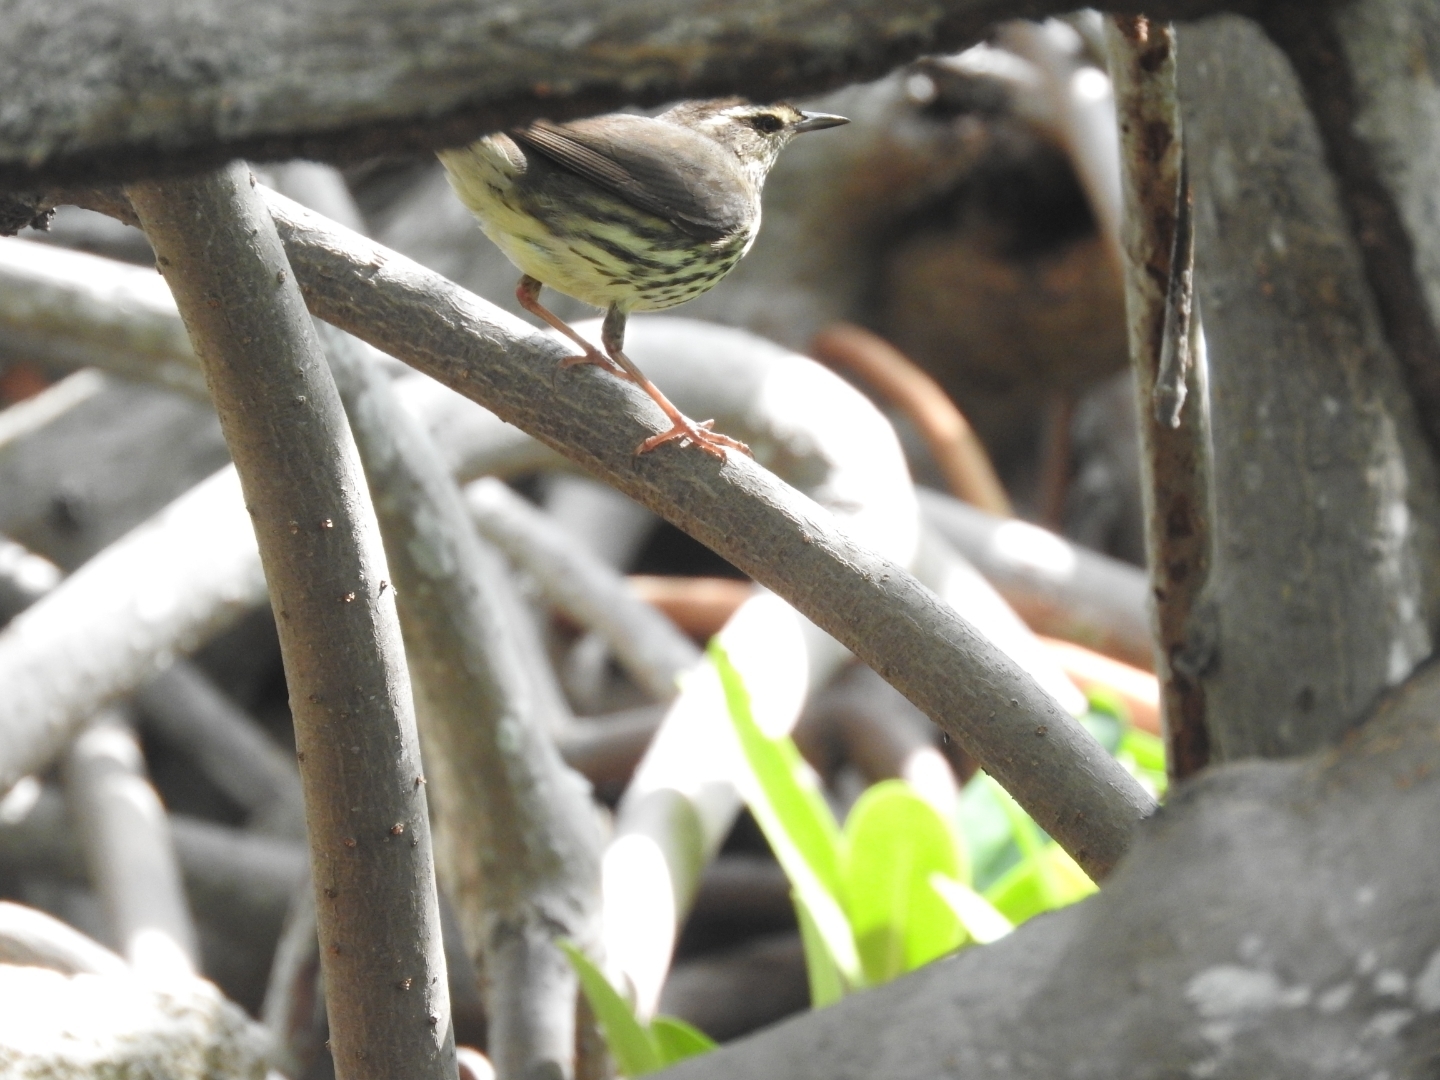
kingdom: Animalia
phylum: Chordata
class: Aves
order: Passeriformes
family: Parulidae
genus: Parkesia
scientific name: Parkesia motacilla
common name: Louisiana waterthrush
